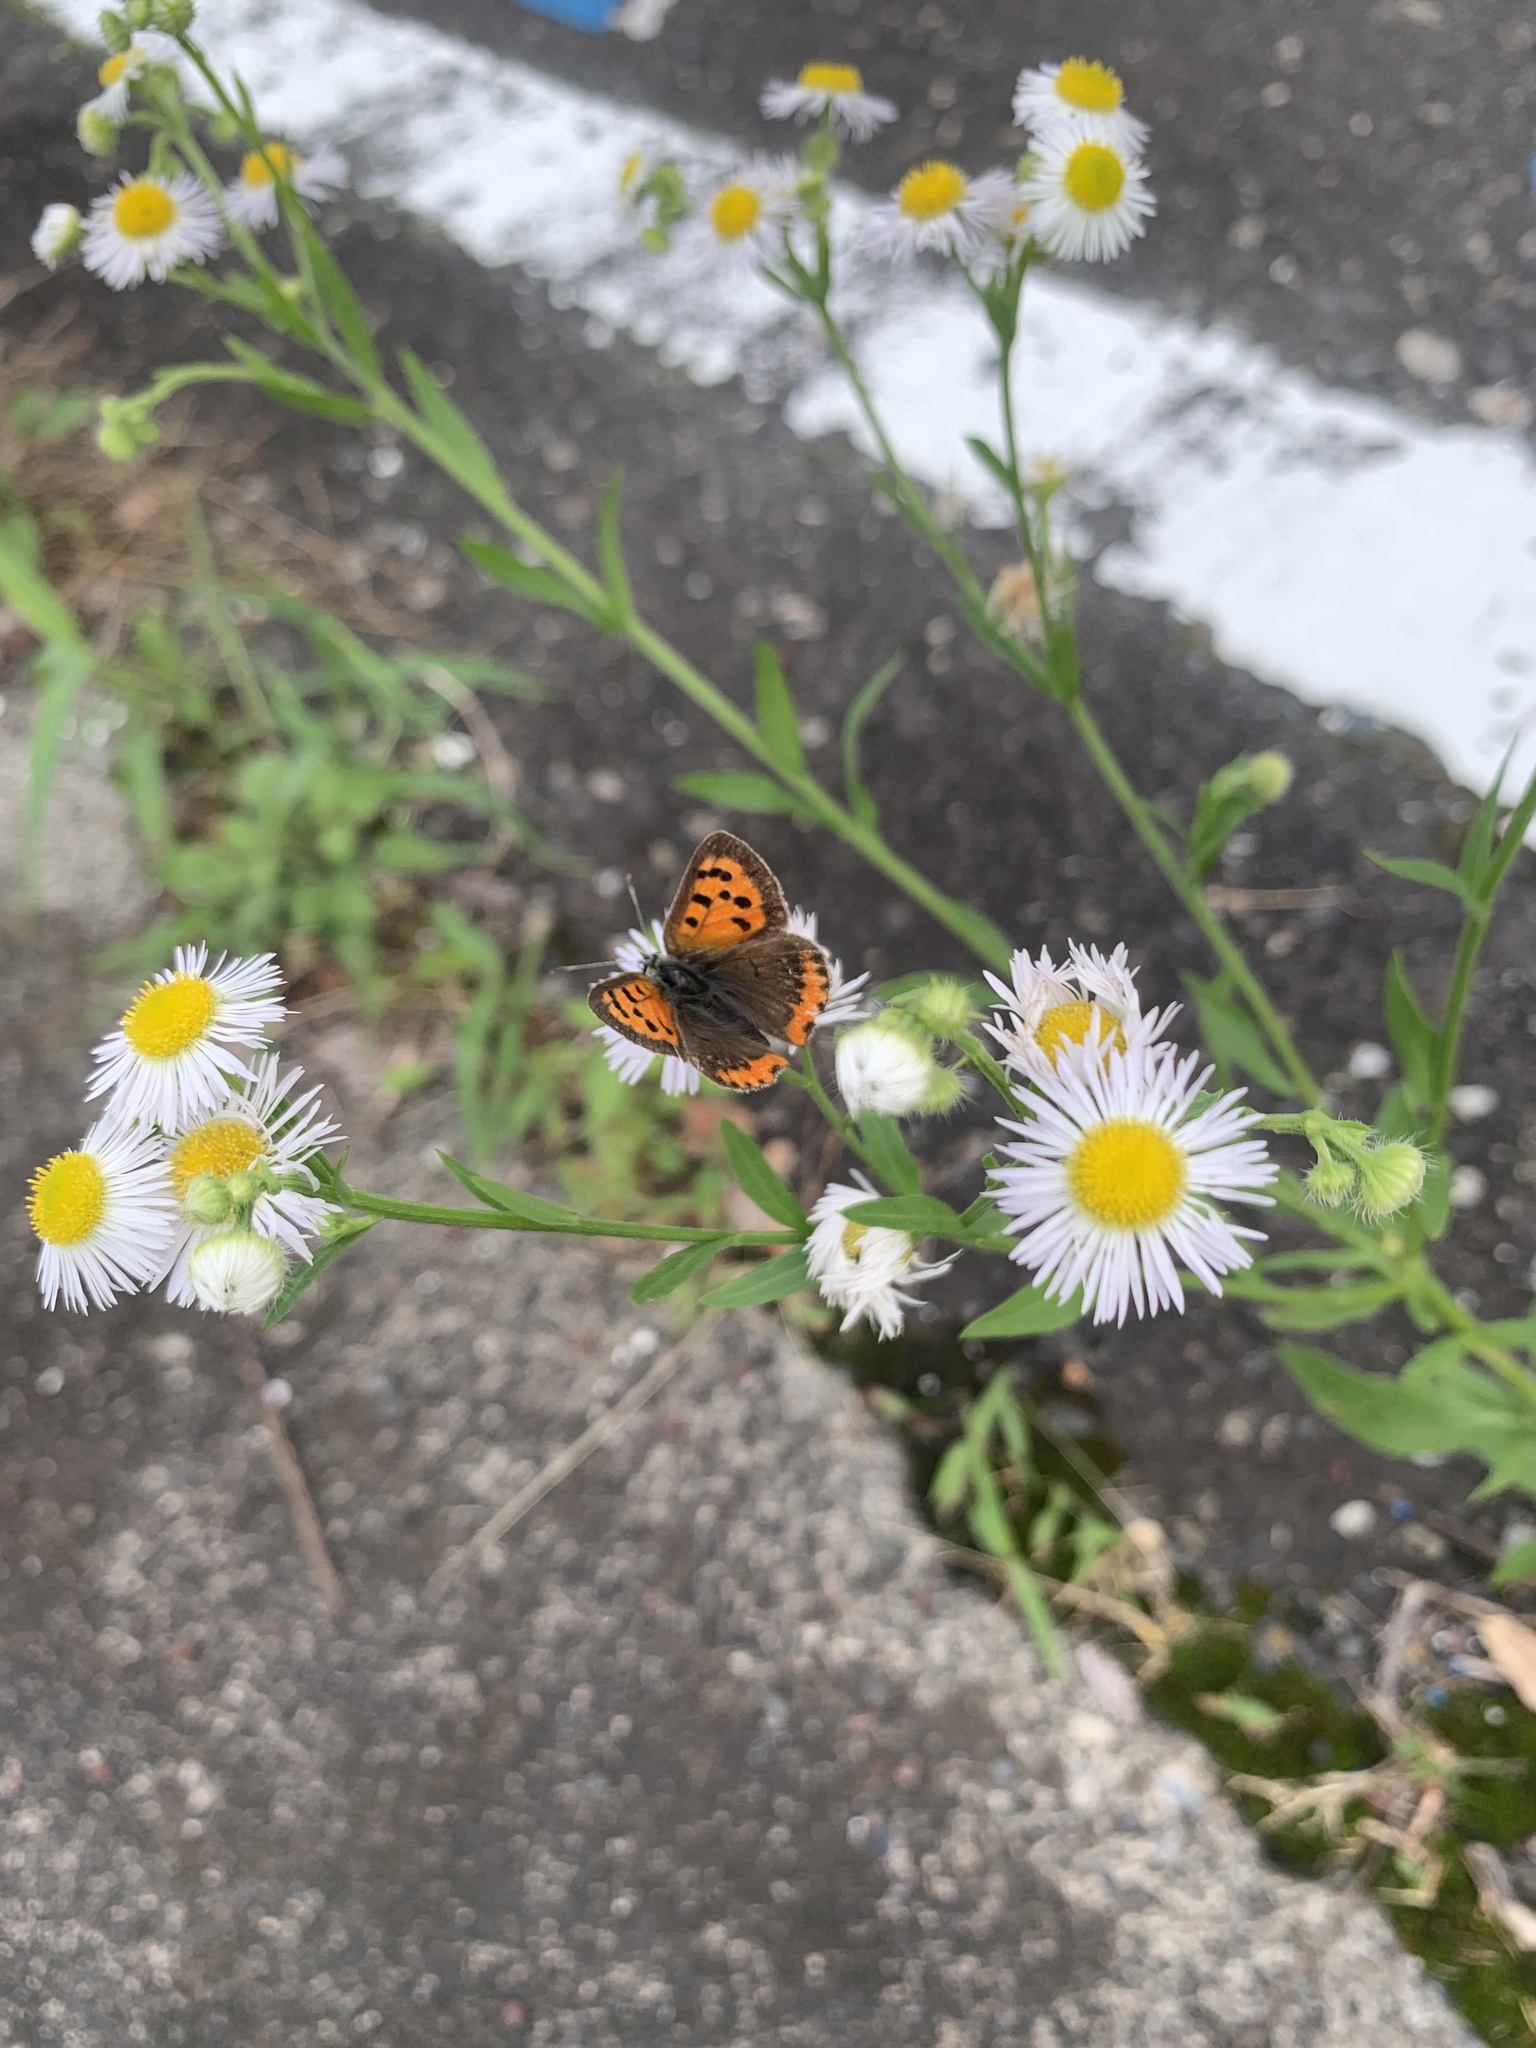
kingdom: Animalia
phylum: Arthropoda
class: Insecta
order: Lepidoptera
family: Lycaenidae
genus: Lycaena
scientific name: Lycaena phlaeas
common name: Small copper
